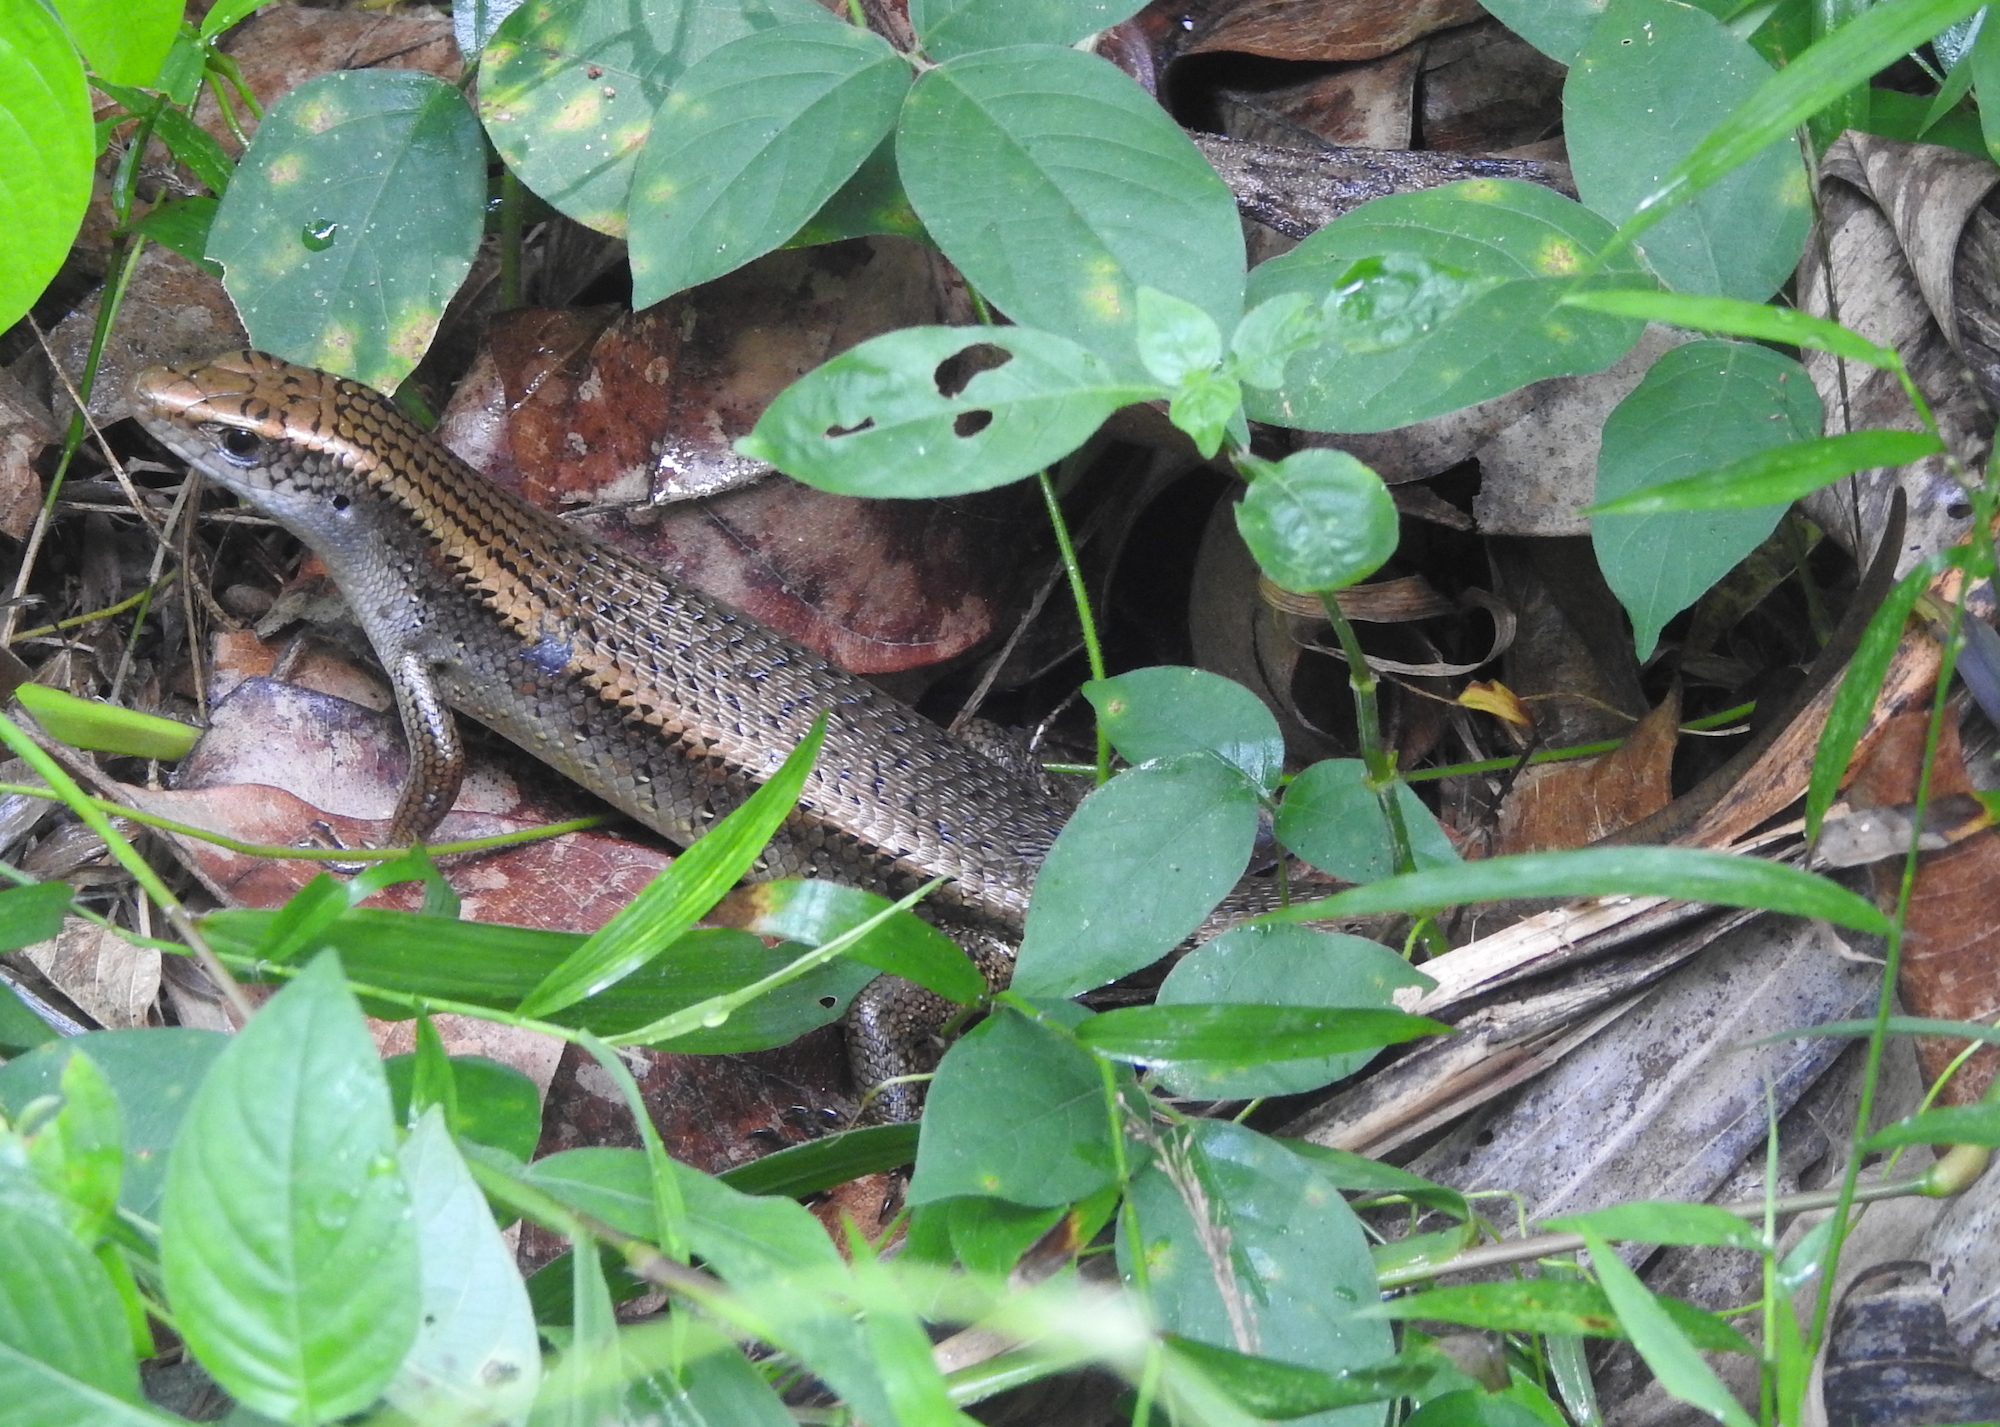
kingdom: Animalia
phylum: Chordata
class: Squamata
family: Scincidae
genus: Eutropis
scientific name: Eutropis multifasciata
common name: Common mabuya
